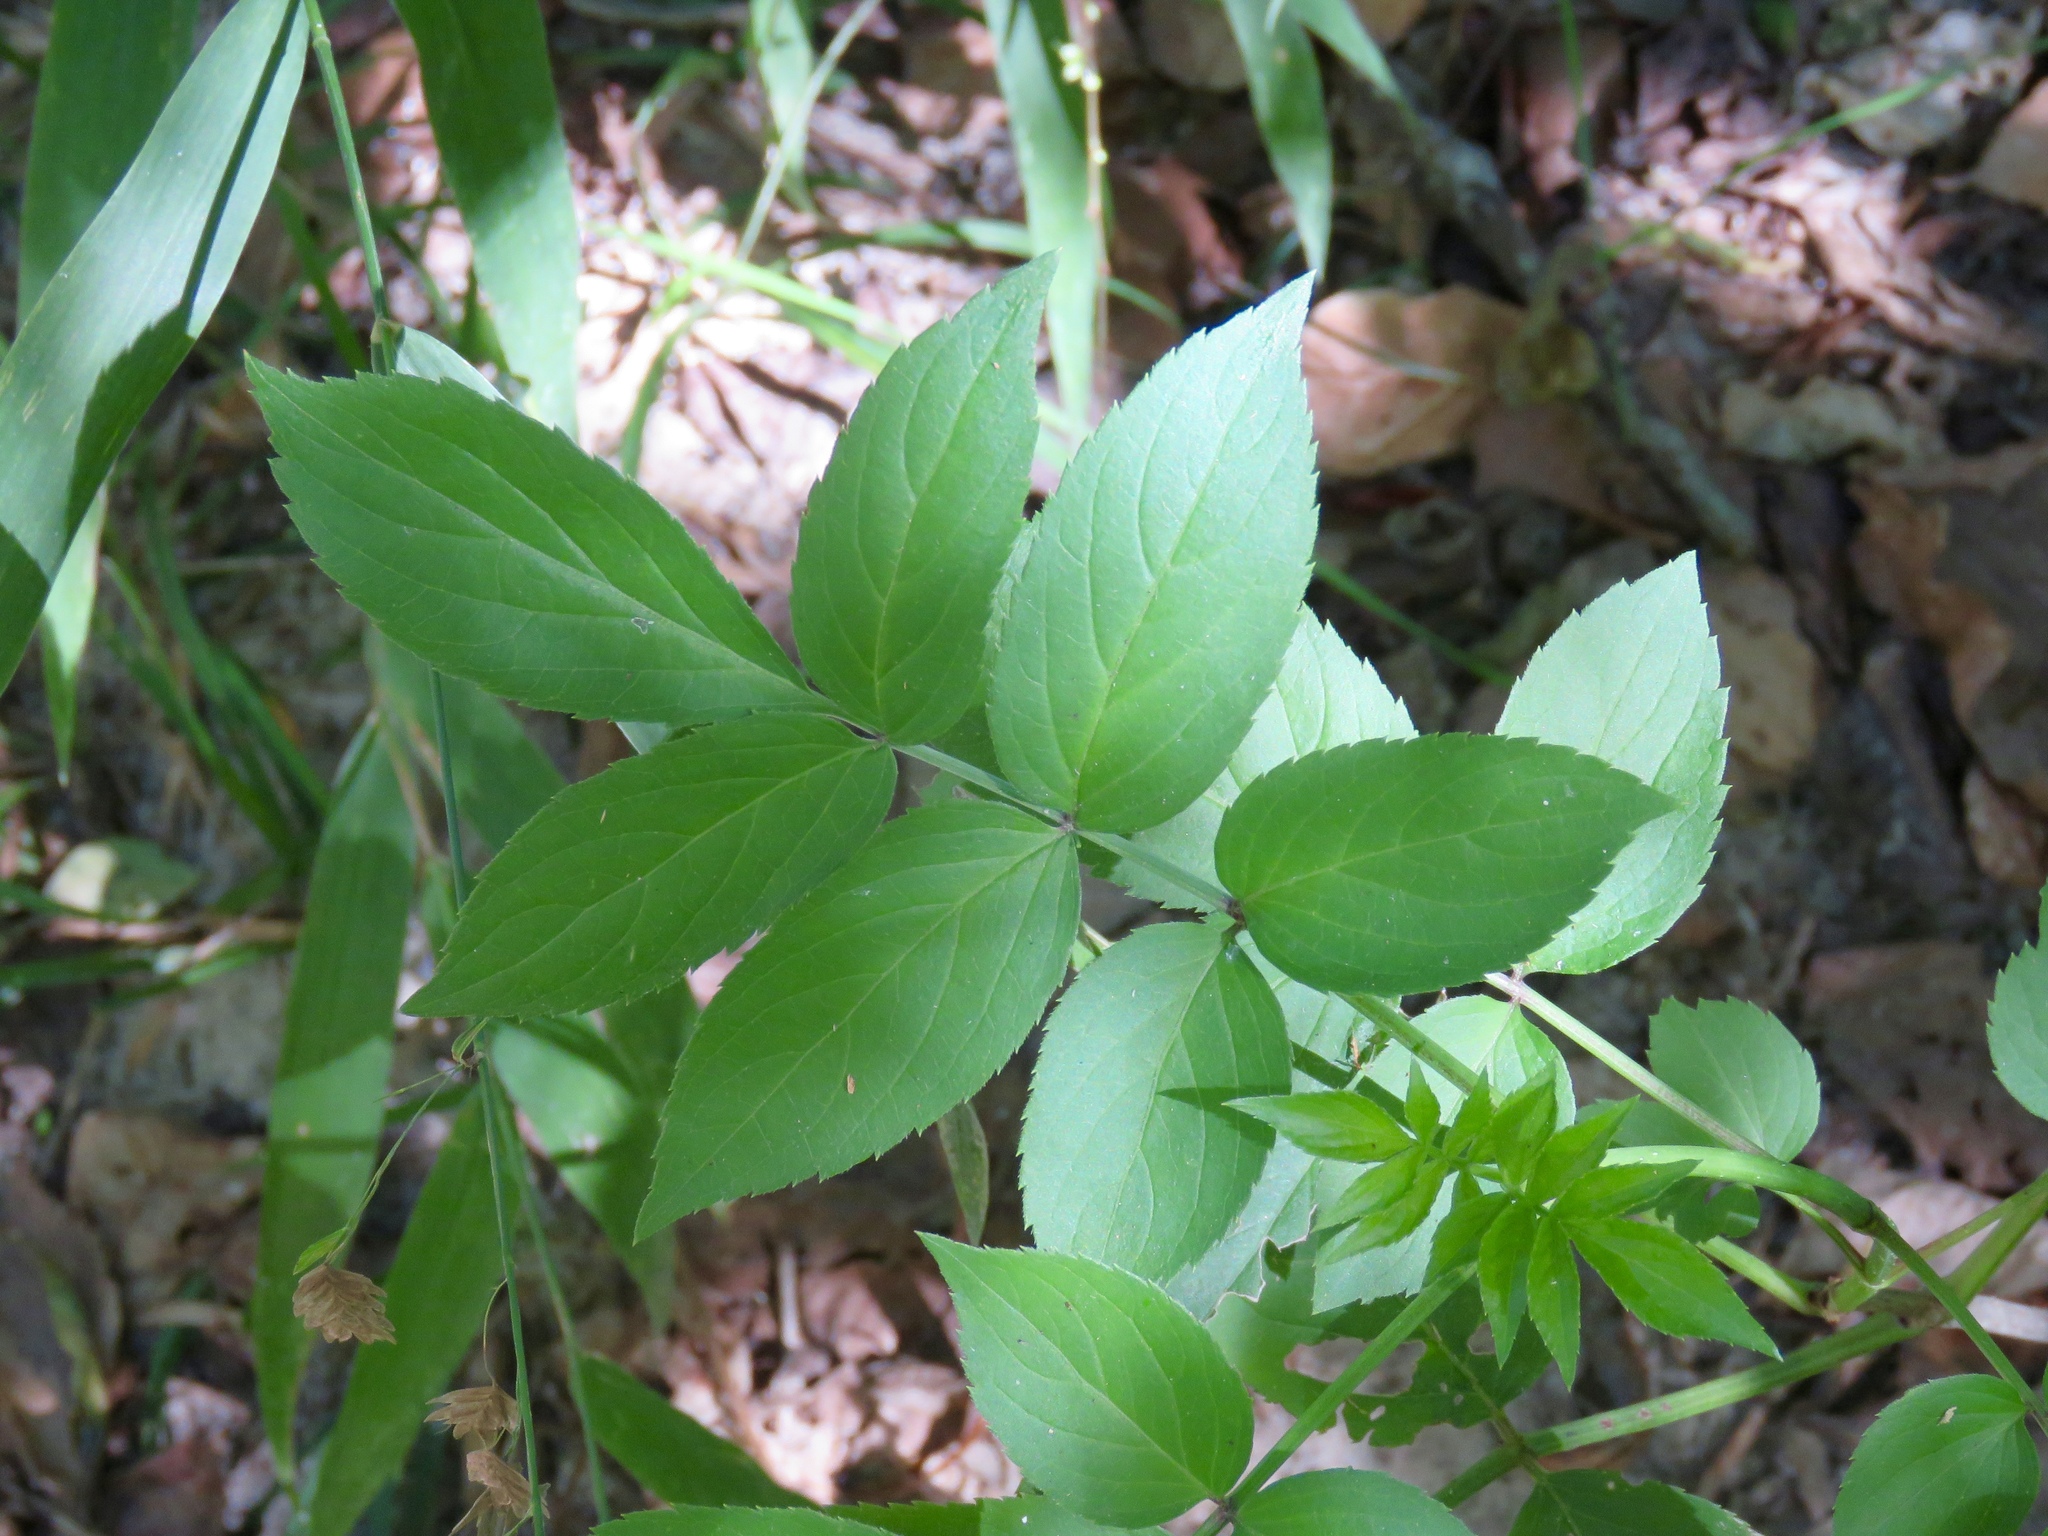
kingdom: Plantae
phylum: Tracheophyta
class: Magnoliopsida
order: Dipsacales
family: Viburnaceae
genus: Sambucus
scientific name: Sambucus canadensis
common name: American elder
